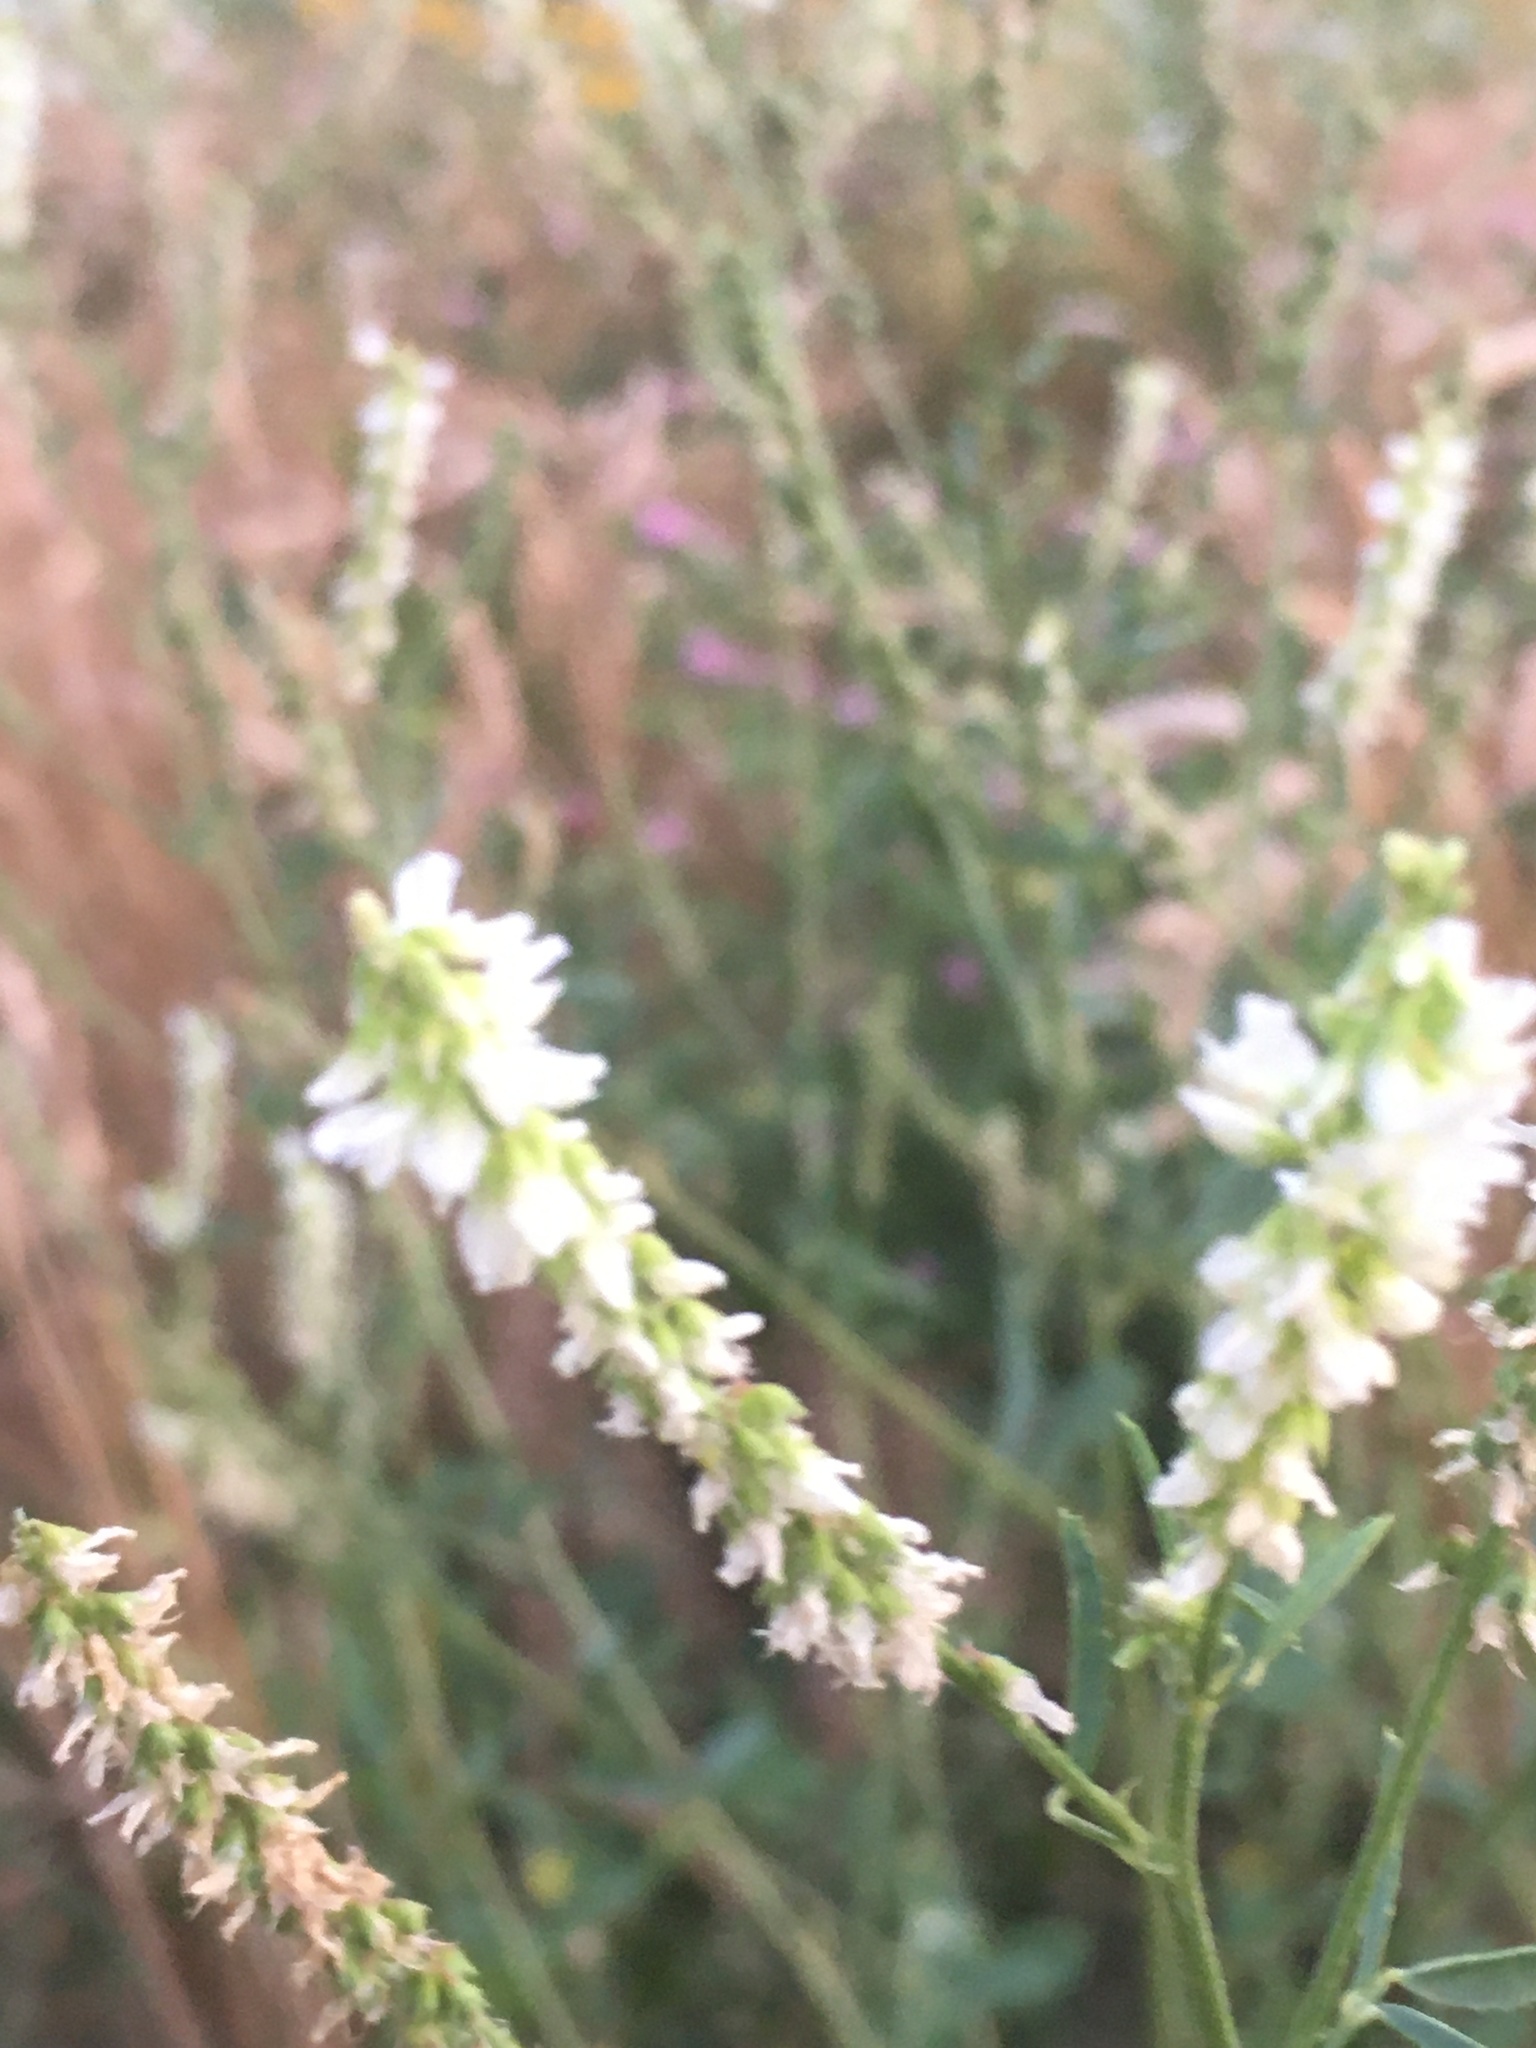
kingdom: Plantae
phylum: Tracheophyta
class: Magnoliopsida
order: Fabales
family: Fabaceae
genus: Melilotus
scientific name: Melilotus albus
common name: White melilot
